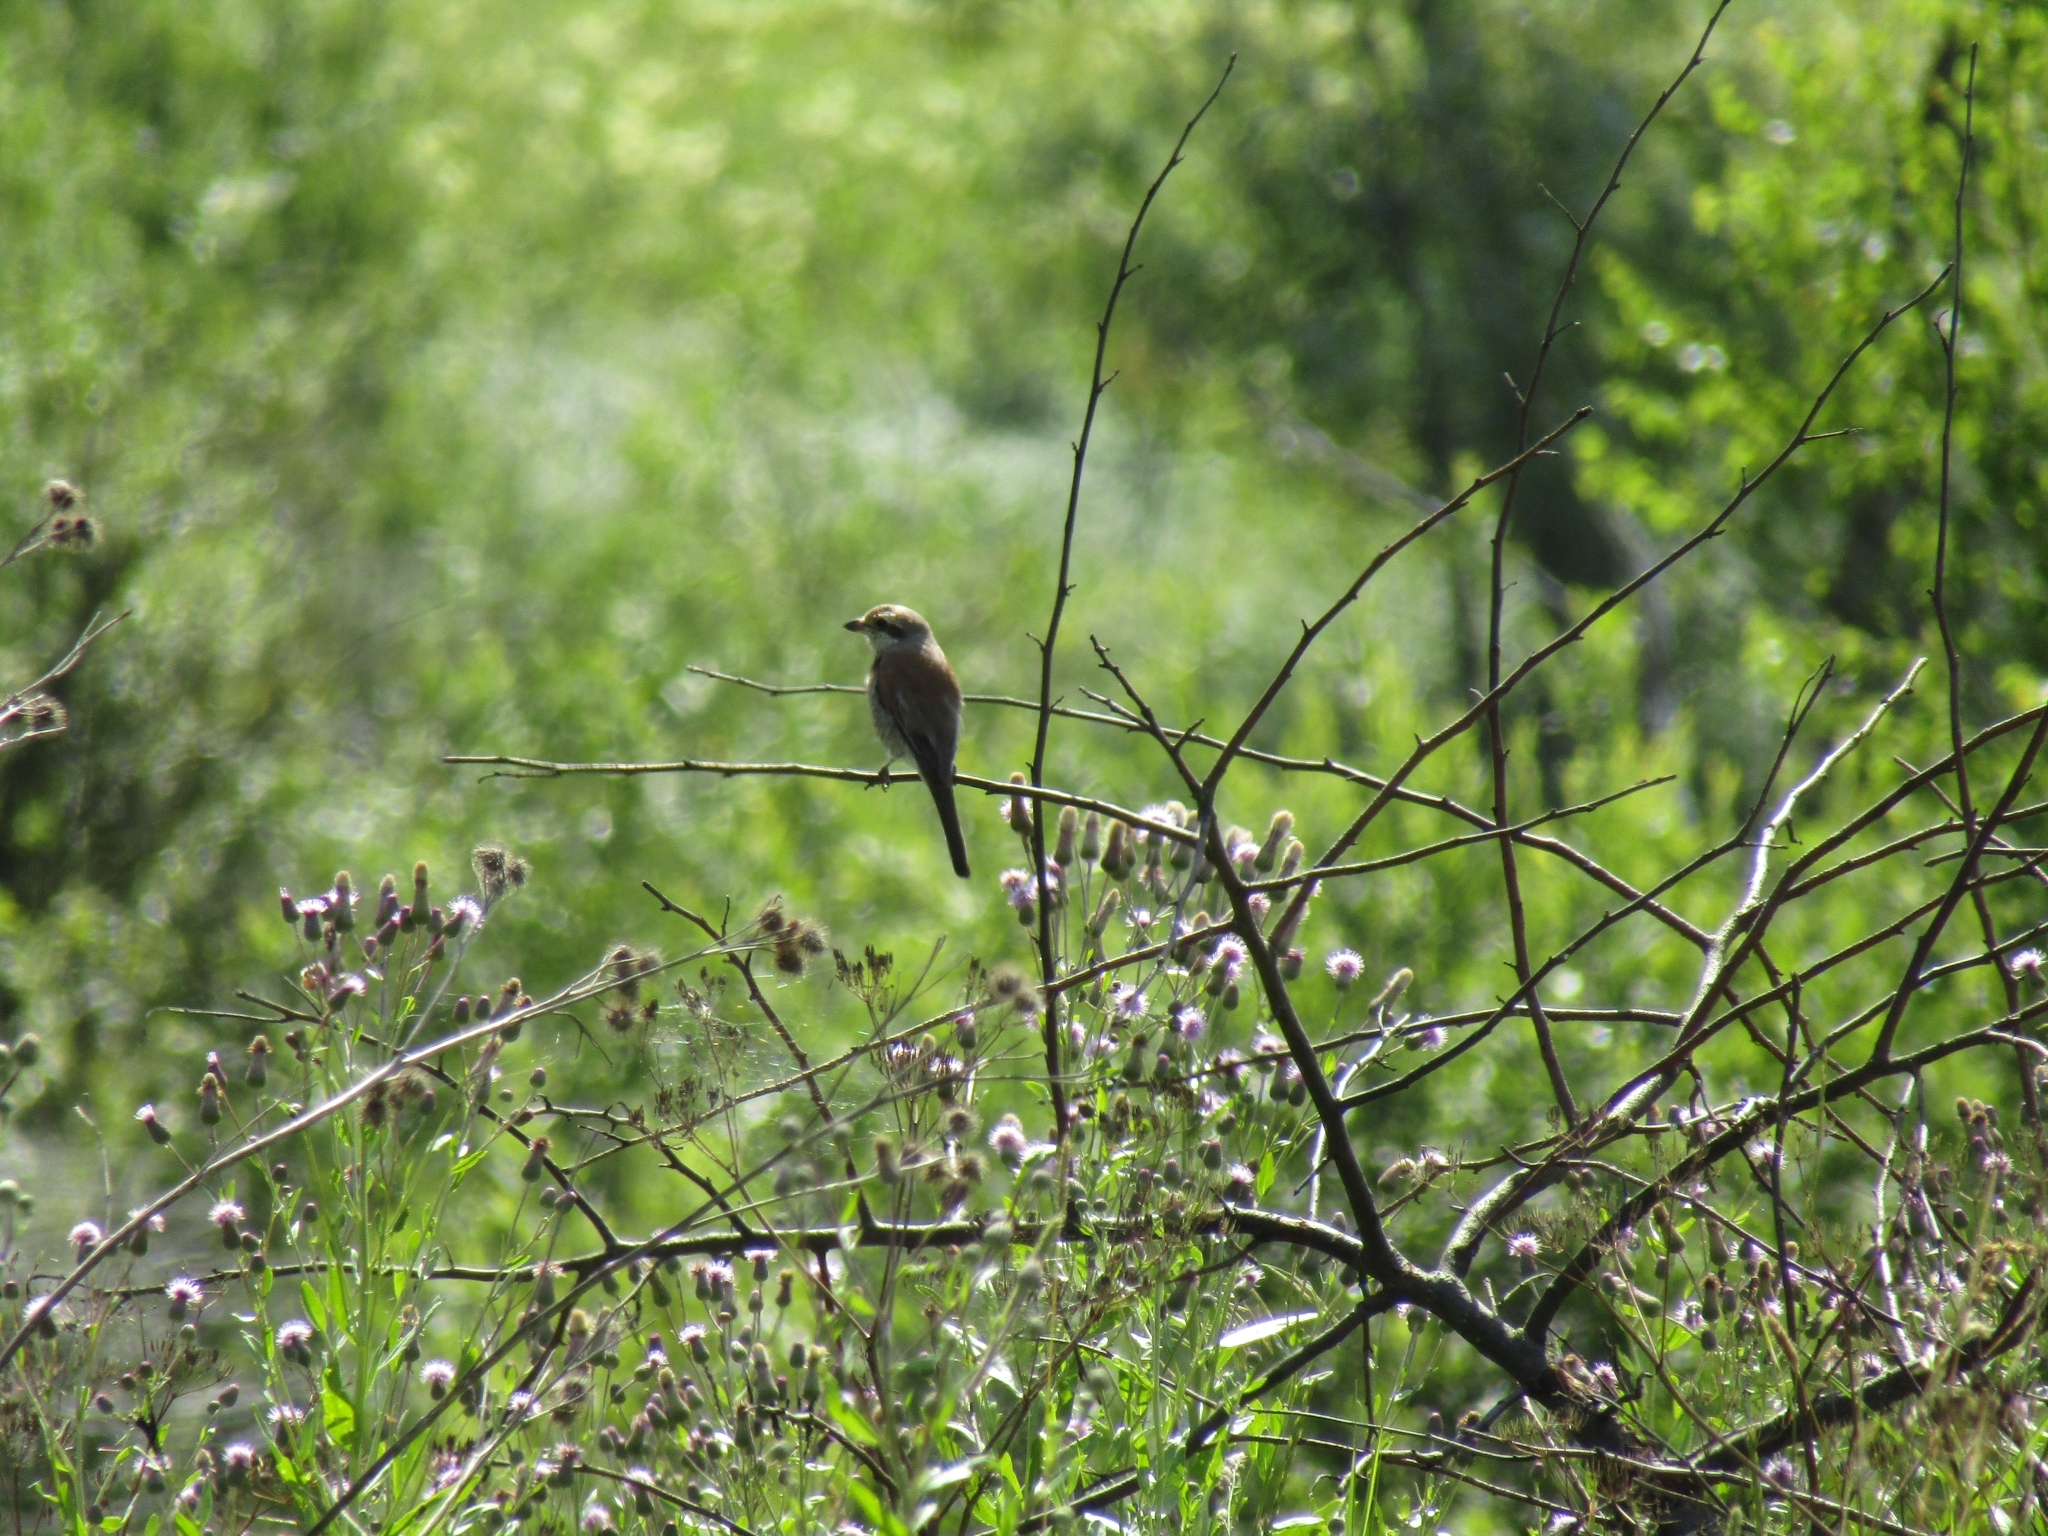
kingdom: Animalia
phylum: Chordata
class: Aves
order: Passeriformes
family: Laniidae
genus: Lanius
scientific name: Lanius collurio
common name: Red-backed shrike
